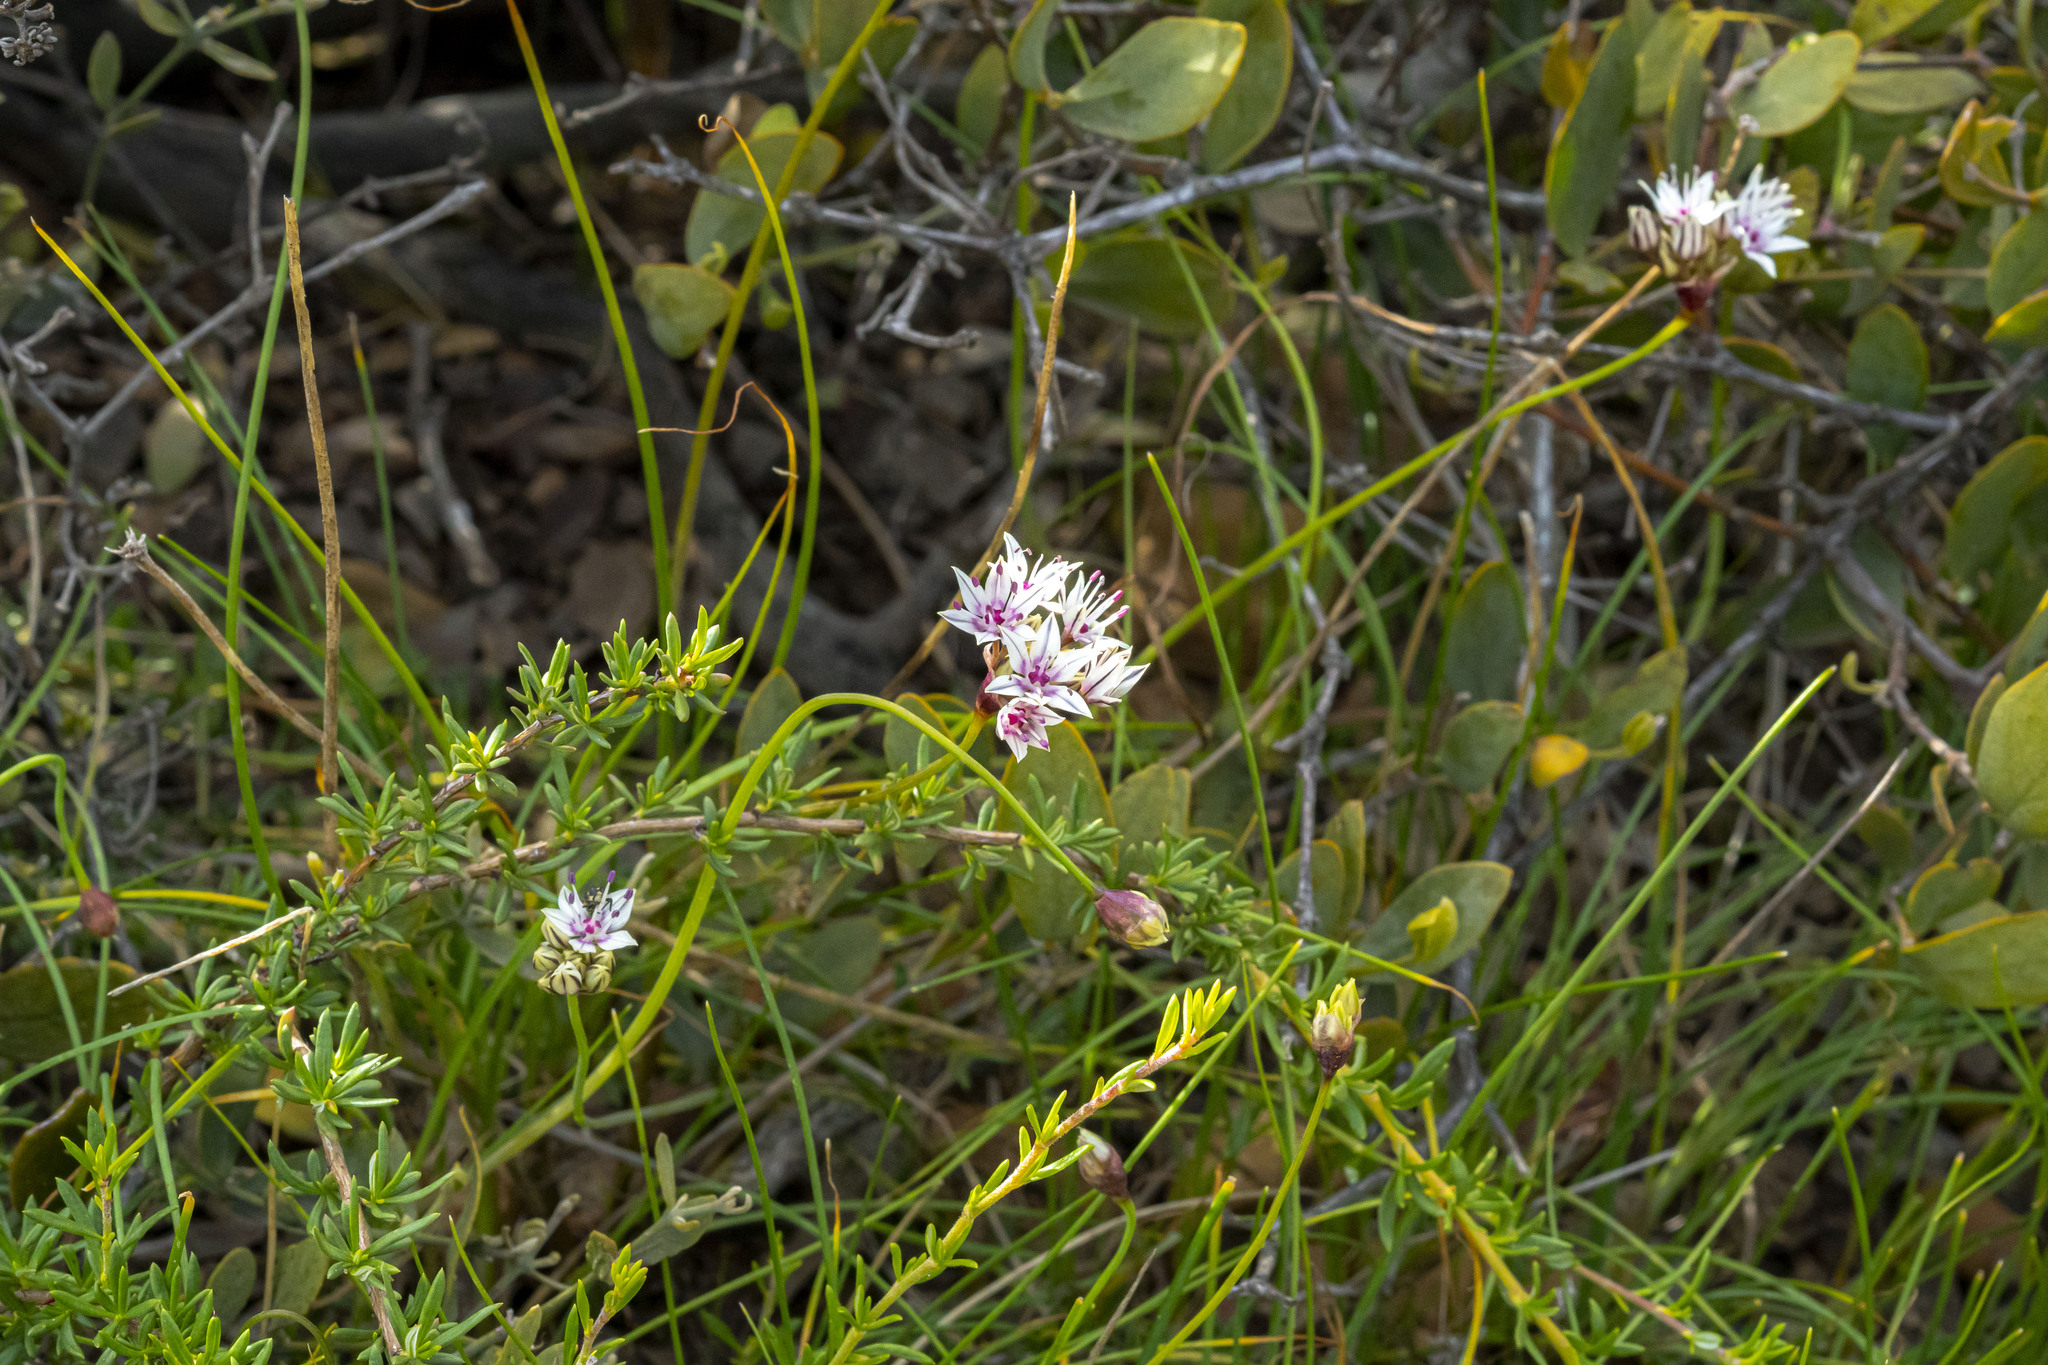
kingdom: Plantae
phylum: Tracheophyta
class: Liliopsida
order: Asparagales
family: Amaryllidaceae
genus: Allium
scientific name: Allium haematochiton
